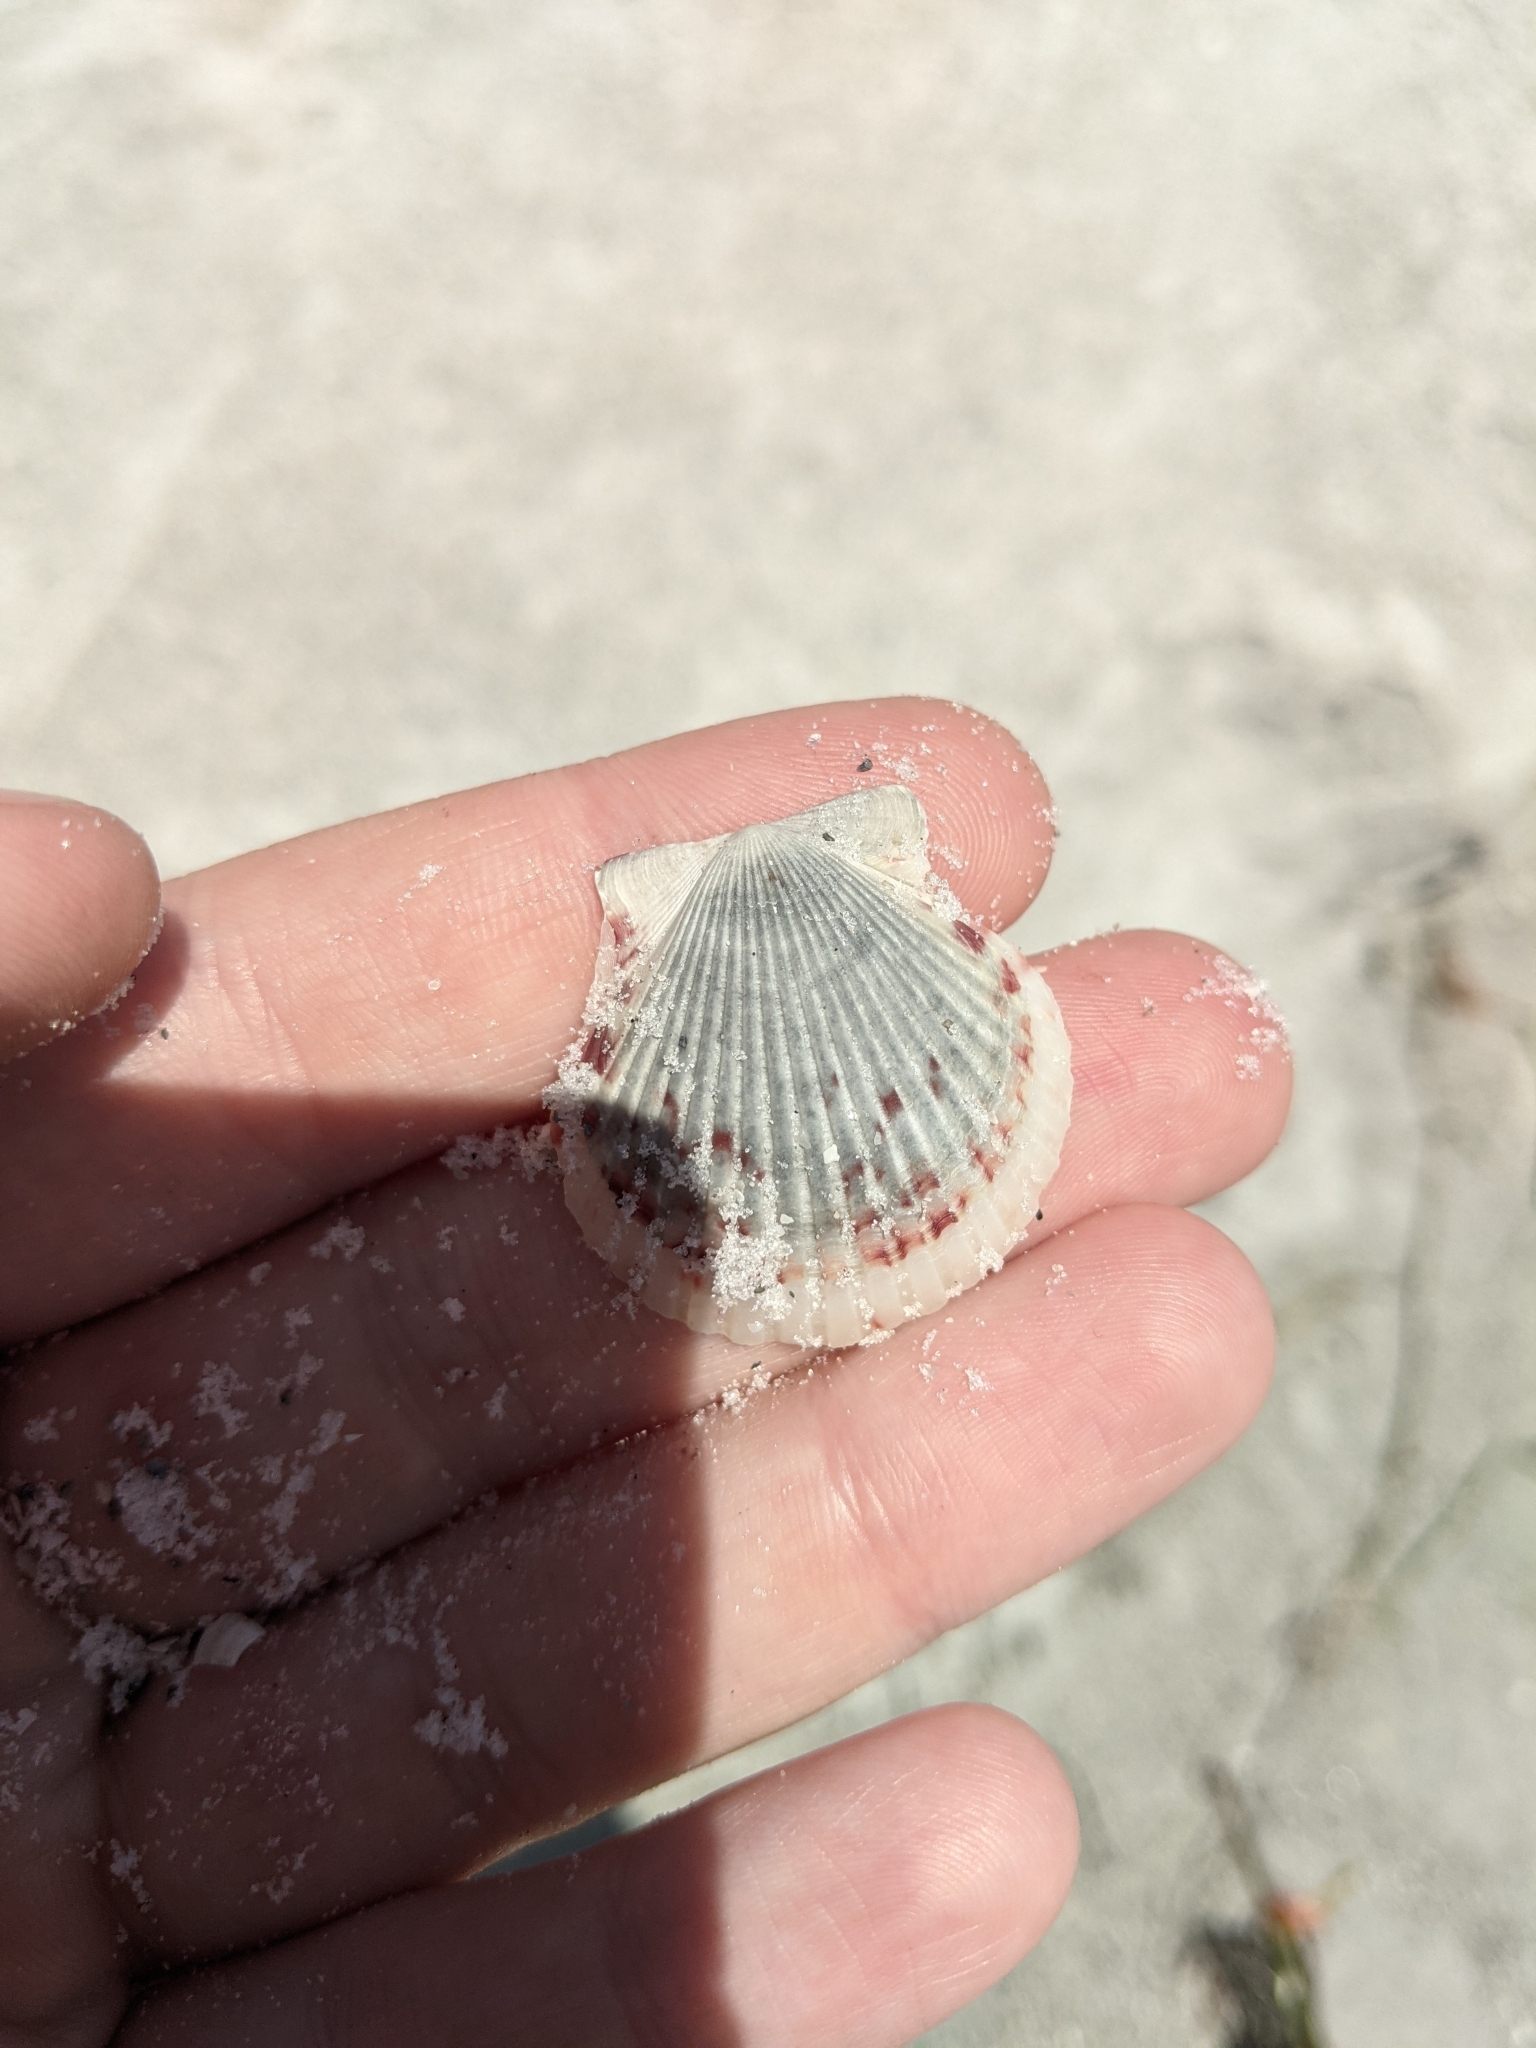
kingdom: Animalia
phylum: Mollusca
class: Bivalvia
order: Pectinida
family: Pectinidae
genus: Argopecten
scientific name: Argopecten gibbus
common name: Atlantic calico scallop
